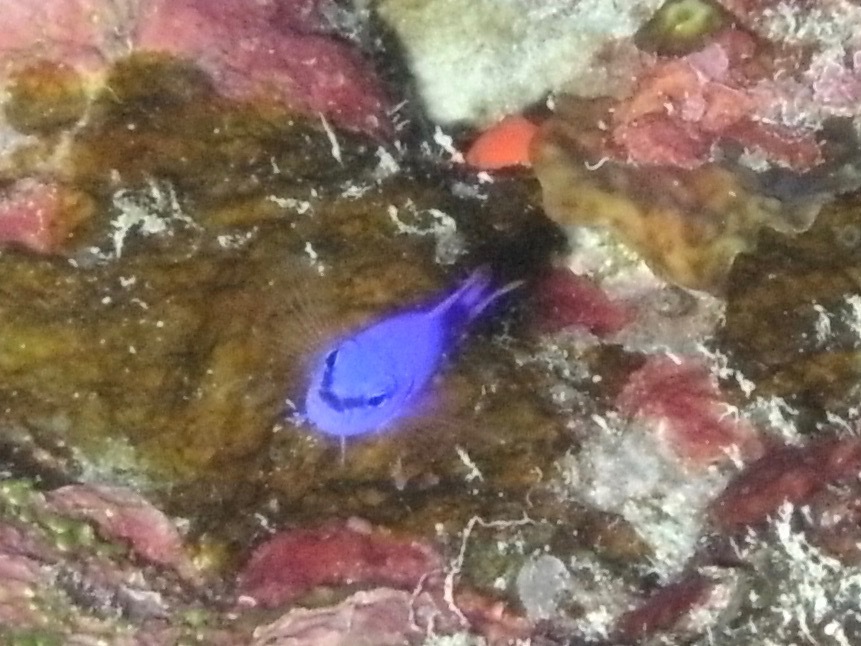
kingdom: Animalia
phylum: Chordata
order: Perciformes
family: Pseudochromidae
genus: Pseudochromis
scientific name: Pseudochromis fridmani
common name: Orchid dottyback
